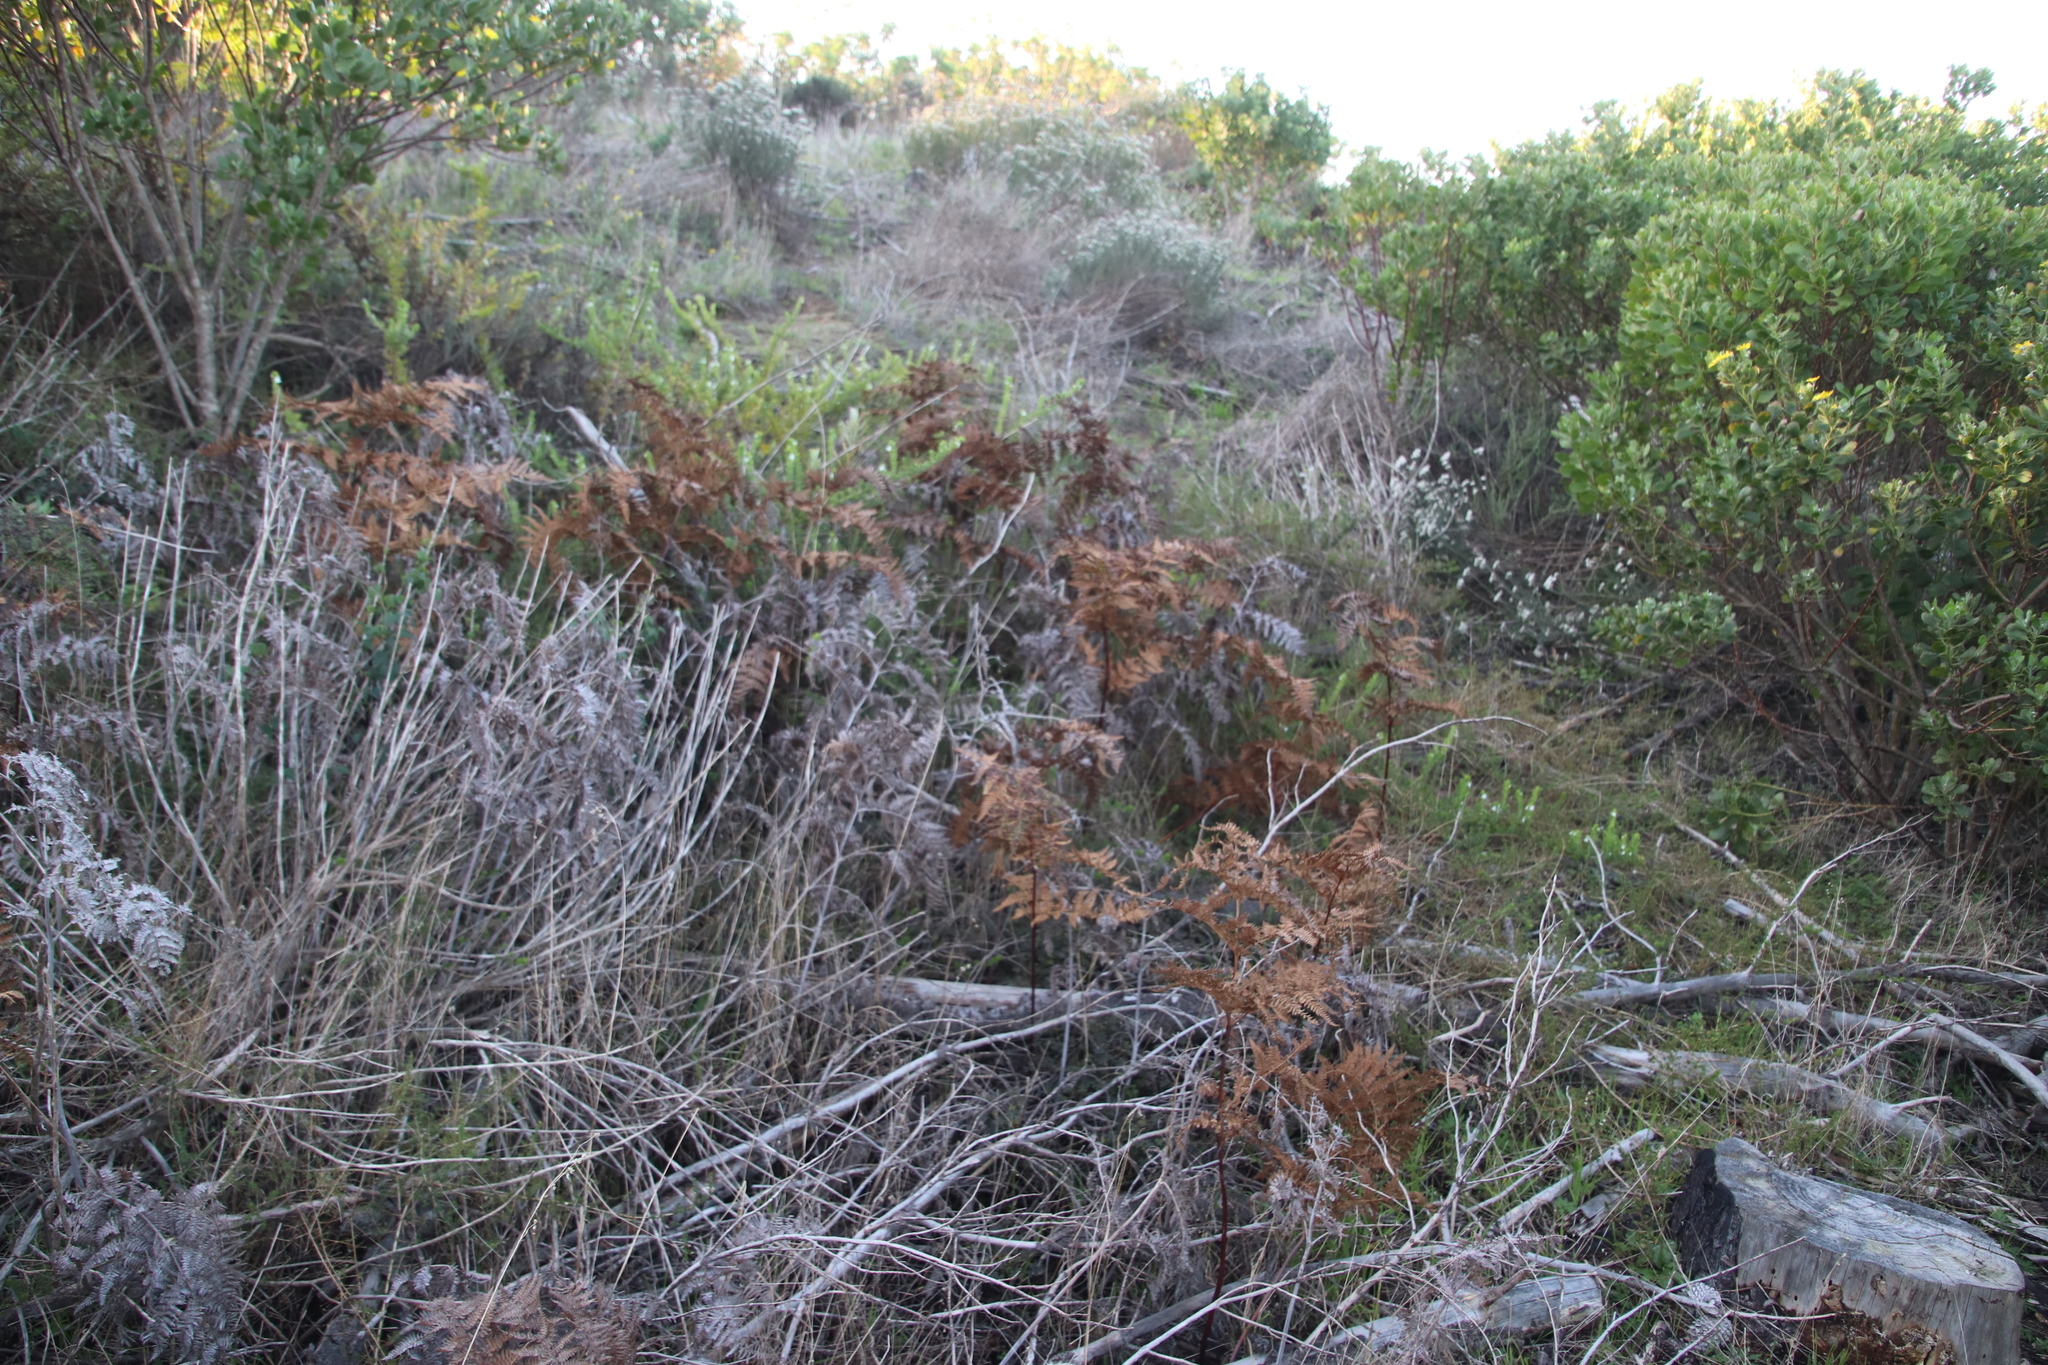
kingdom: Plantae
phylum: Tracheophyta
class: Polypodiopsida
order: Polypodiales
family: Dennstaedtiaceae
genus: Pteridium
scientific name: Pteridium aquilinum
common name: Bracken
